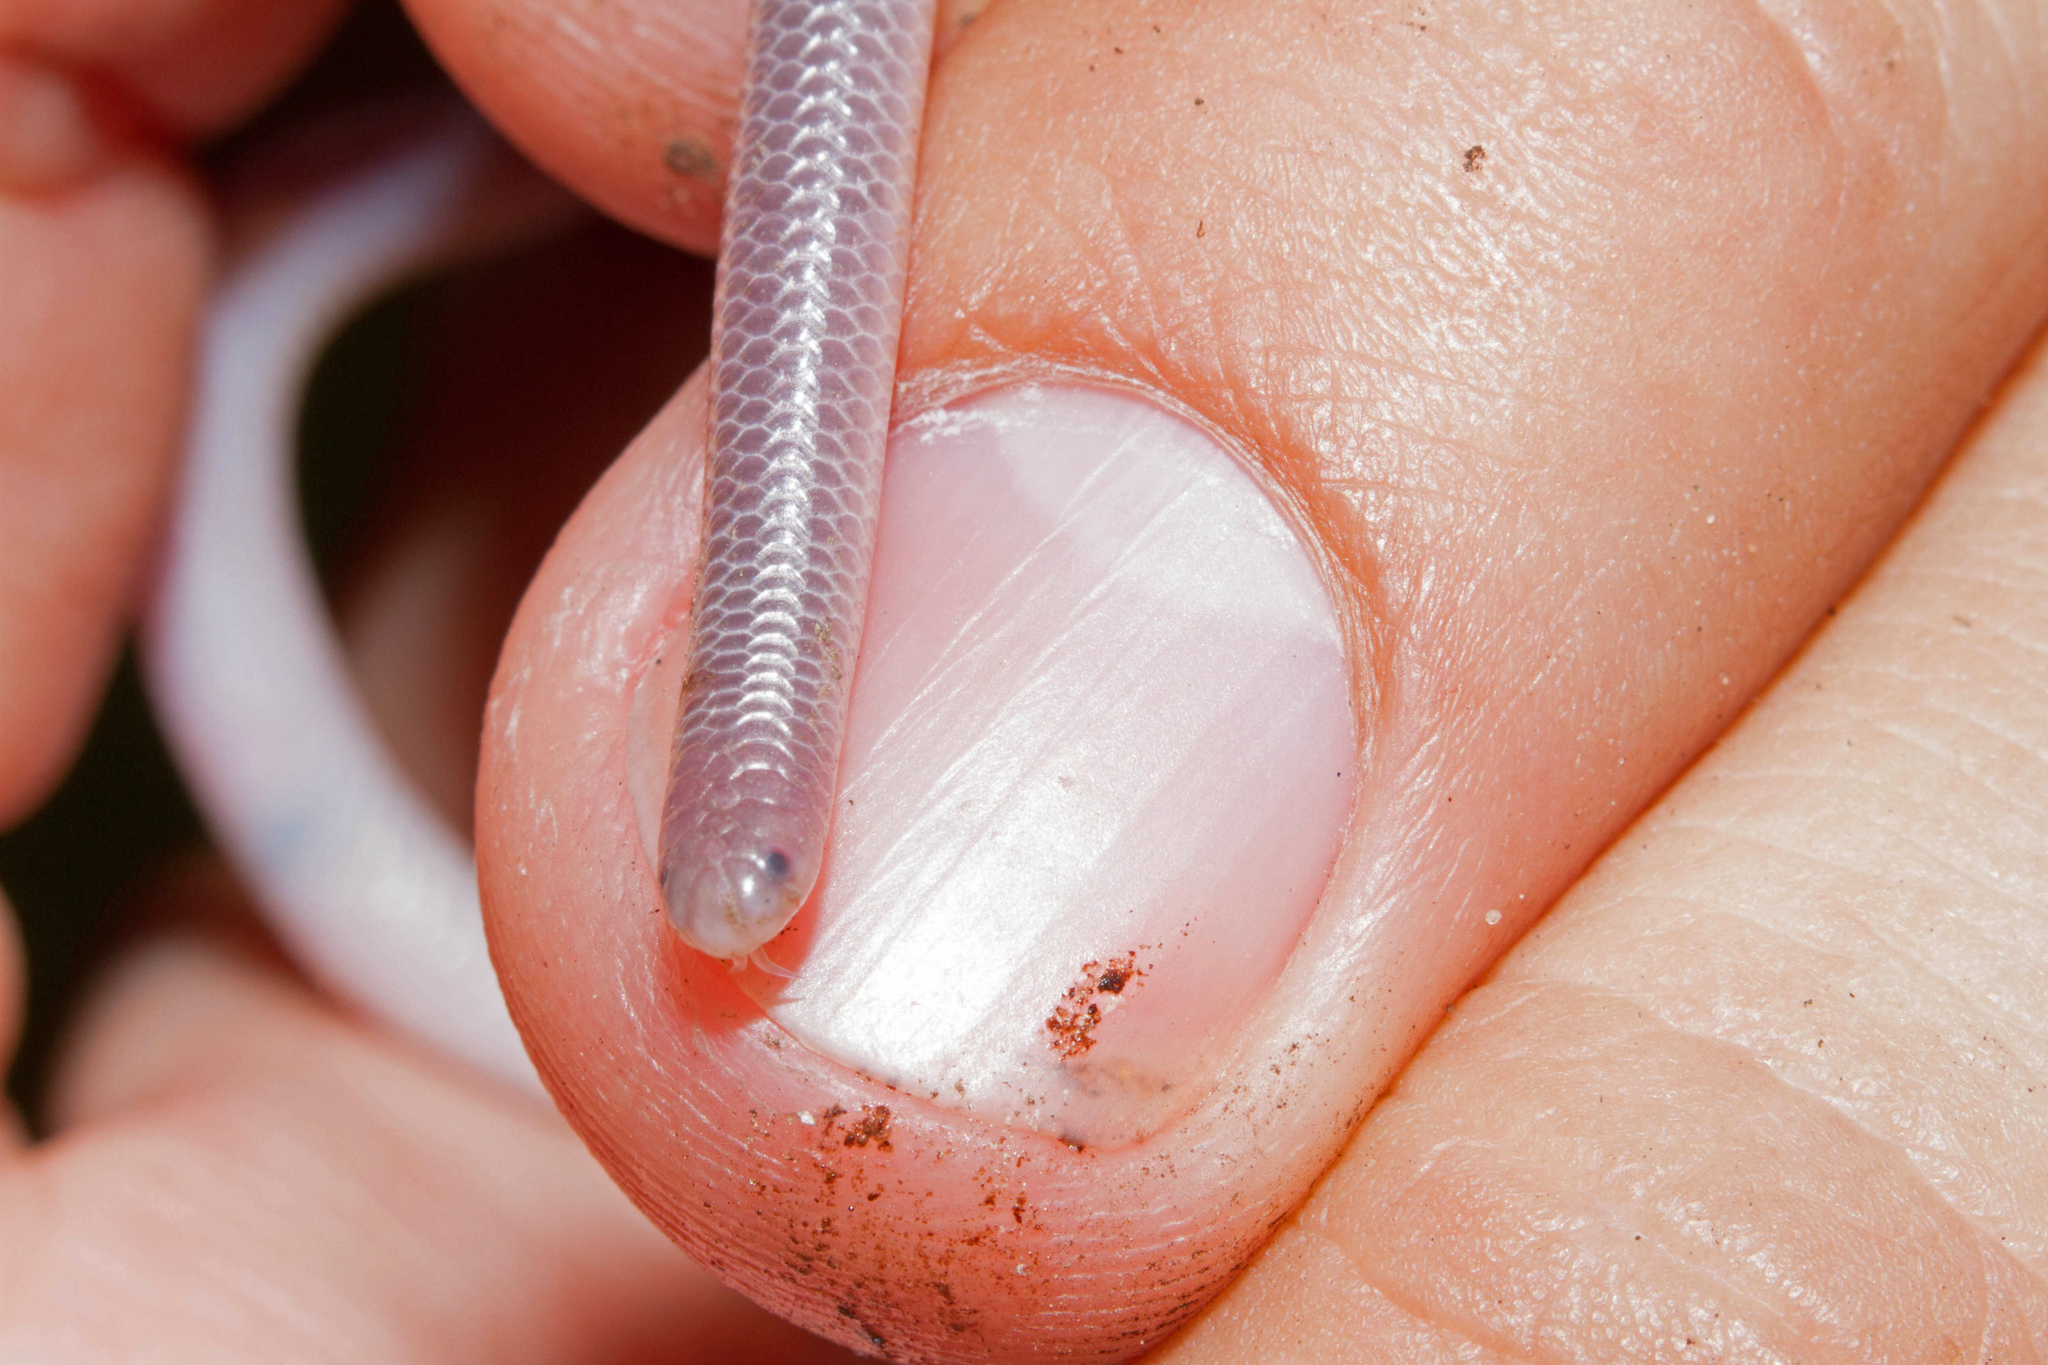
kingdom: Animalia
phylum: Chordata
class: Squamata
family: Leptotyphlopidae
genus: Rena
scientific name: Rena dulcis
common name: Texas blind snake
